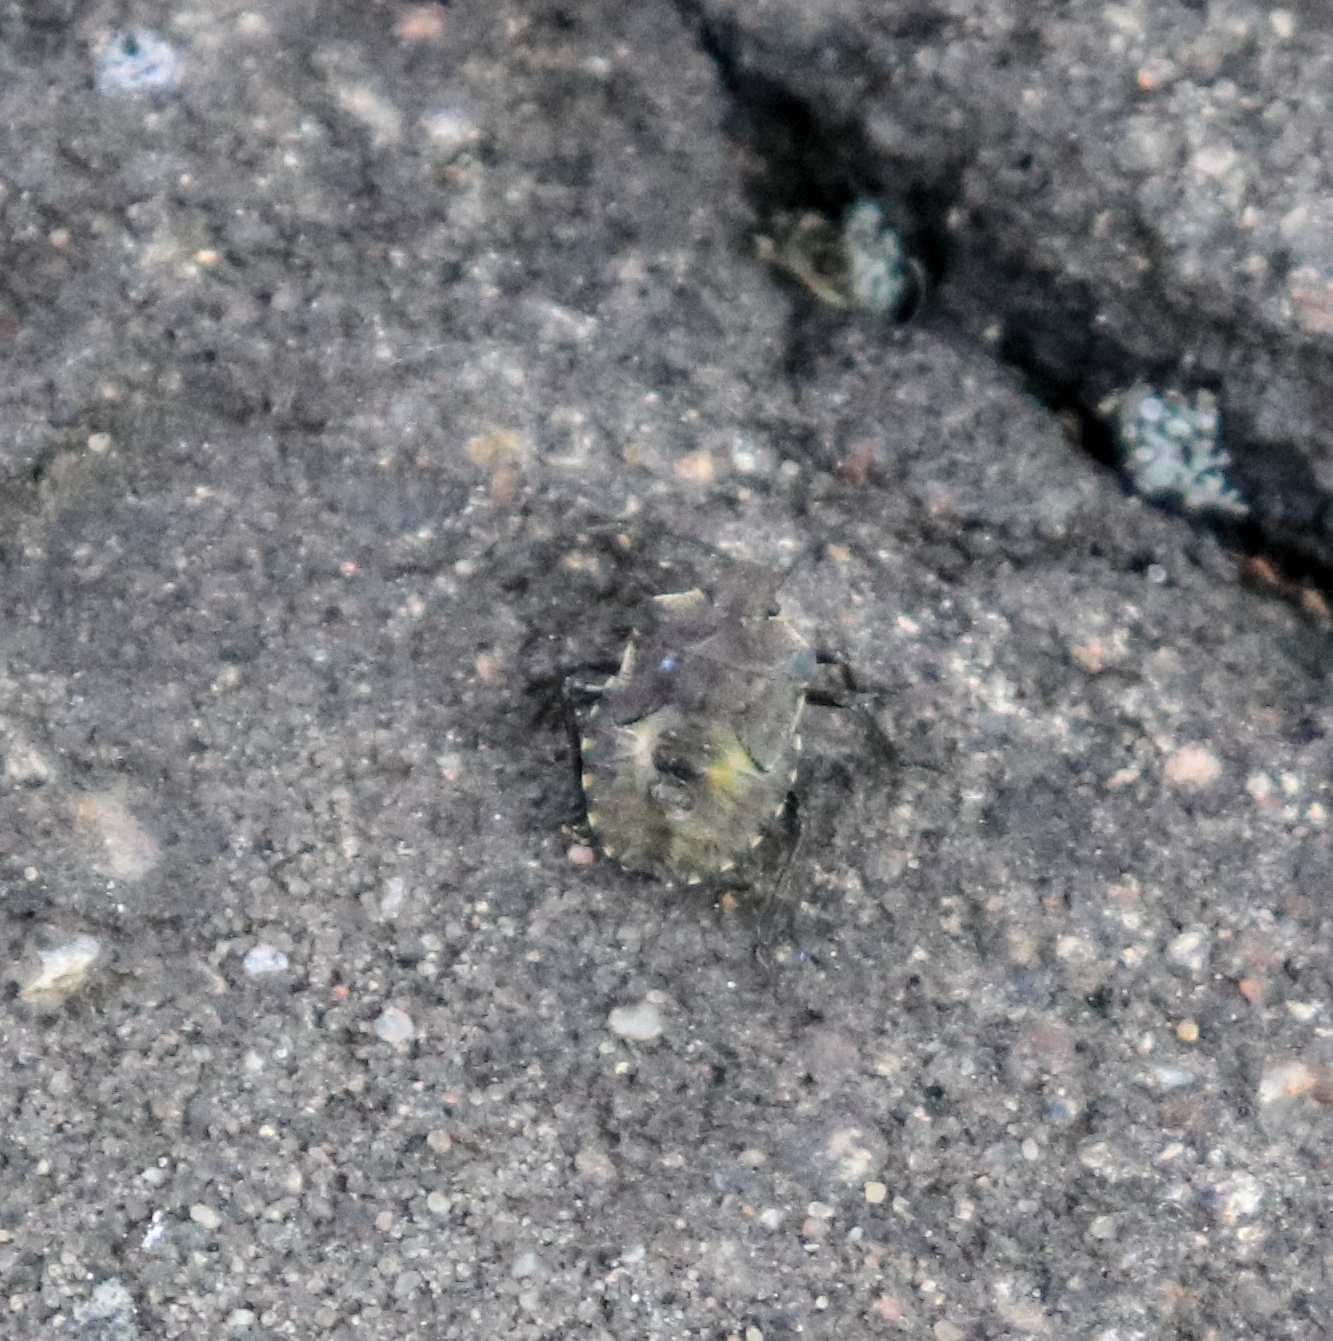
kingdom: Animalia
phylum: Arthropoda
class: Insecta
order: Hemiptera
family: Pentatomidae
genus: Pentatoma
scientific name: Pentatoma rufipes
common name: Forest bug
